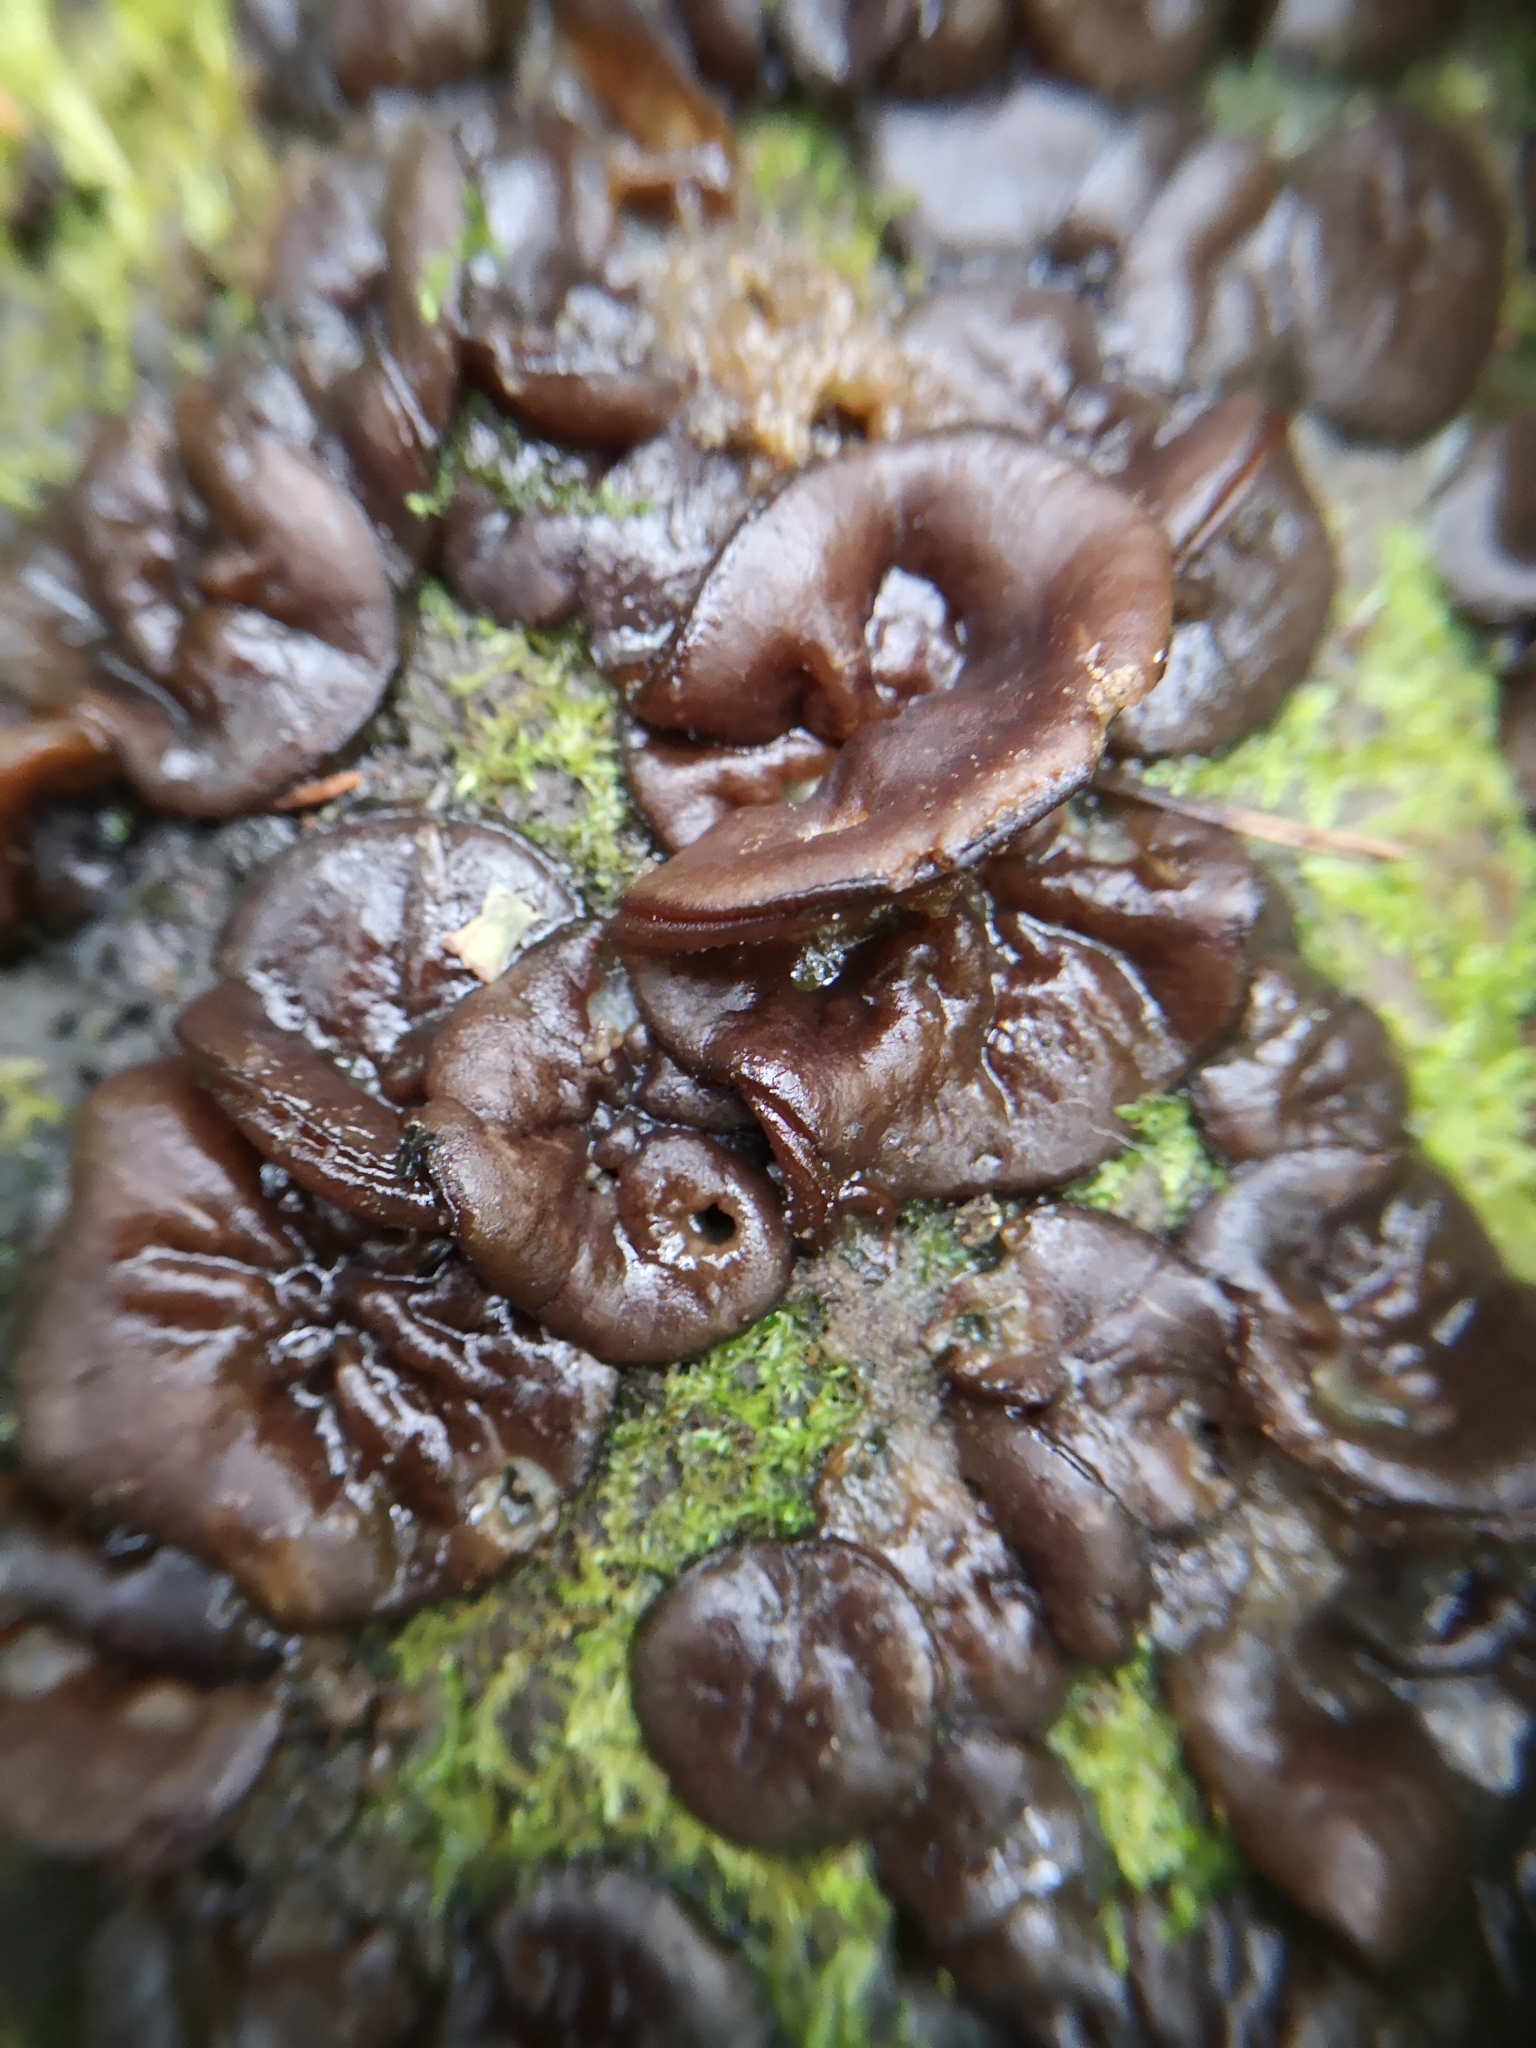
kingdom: Fungi
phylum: Ascomycota
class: Pezizomycetes
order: Pezizales
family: Pezizaceae
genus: Pachyella
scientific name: Pachyella clypeata
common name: Copper penny fungus
